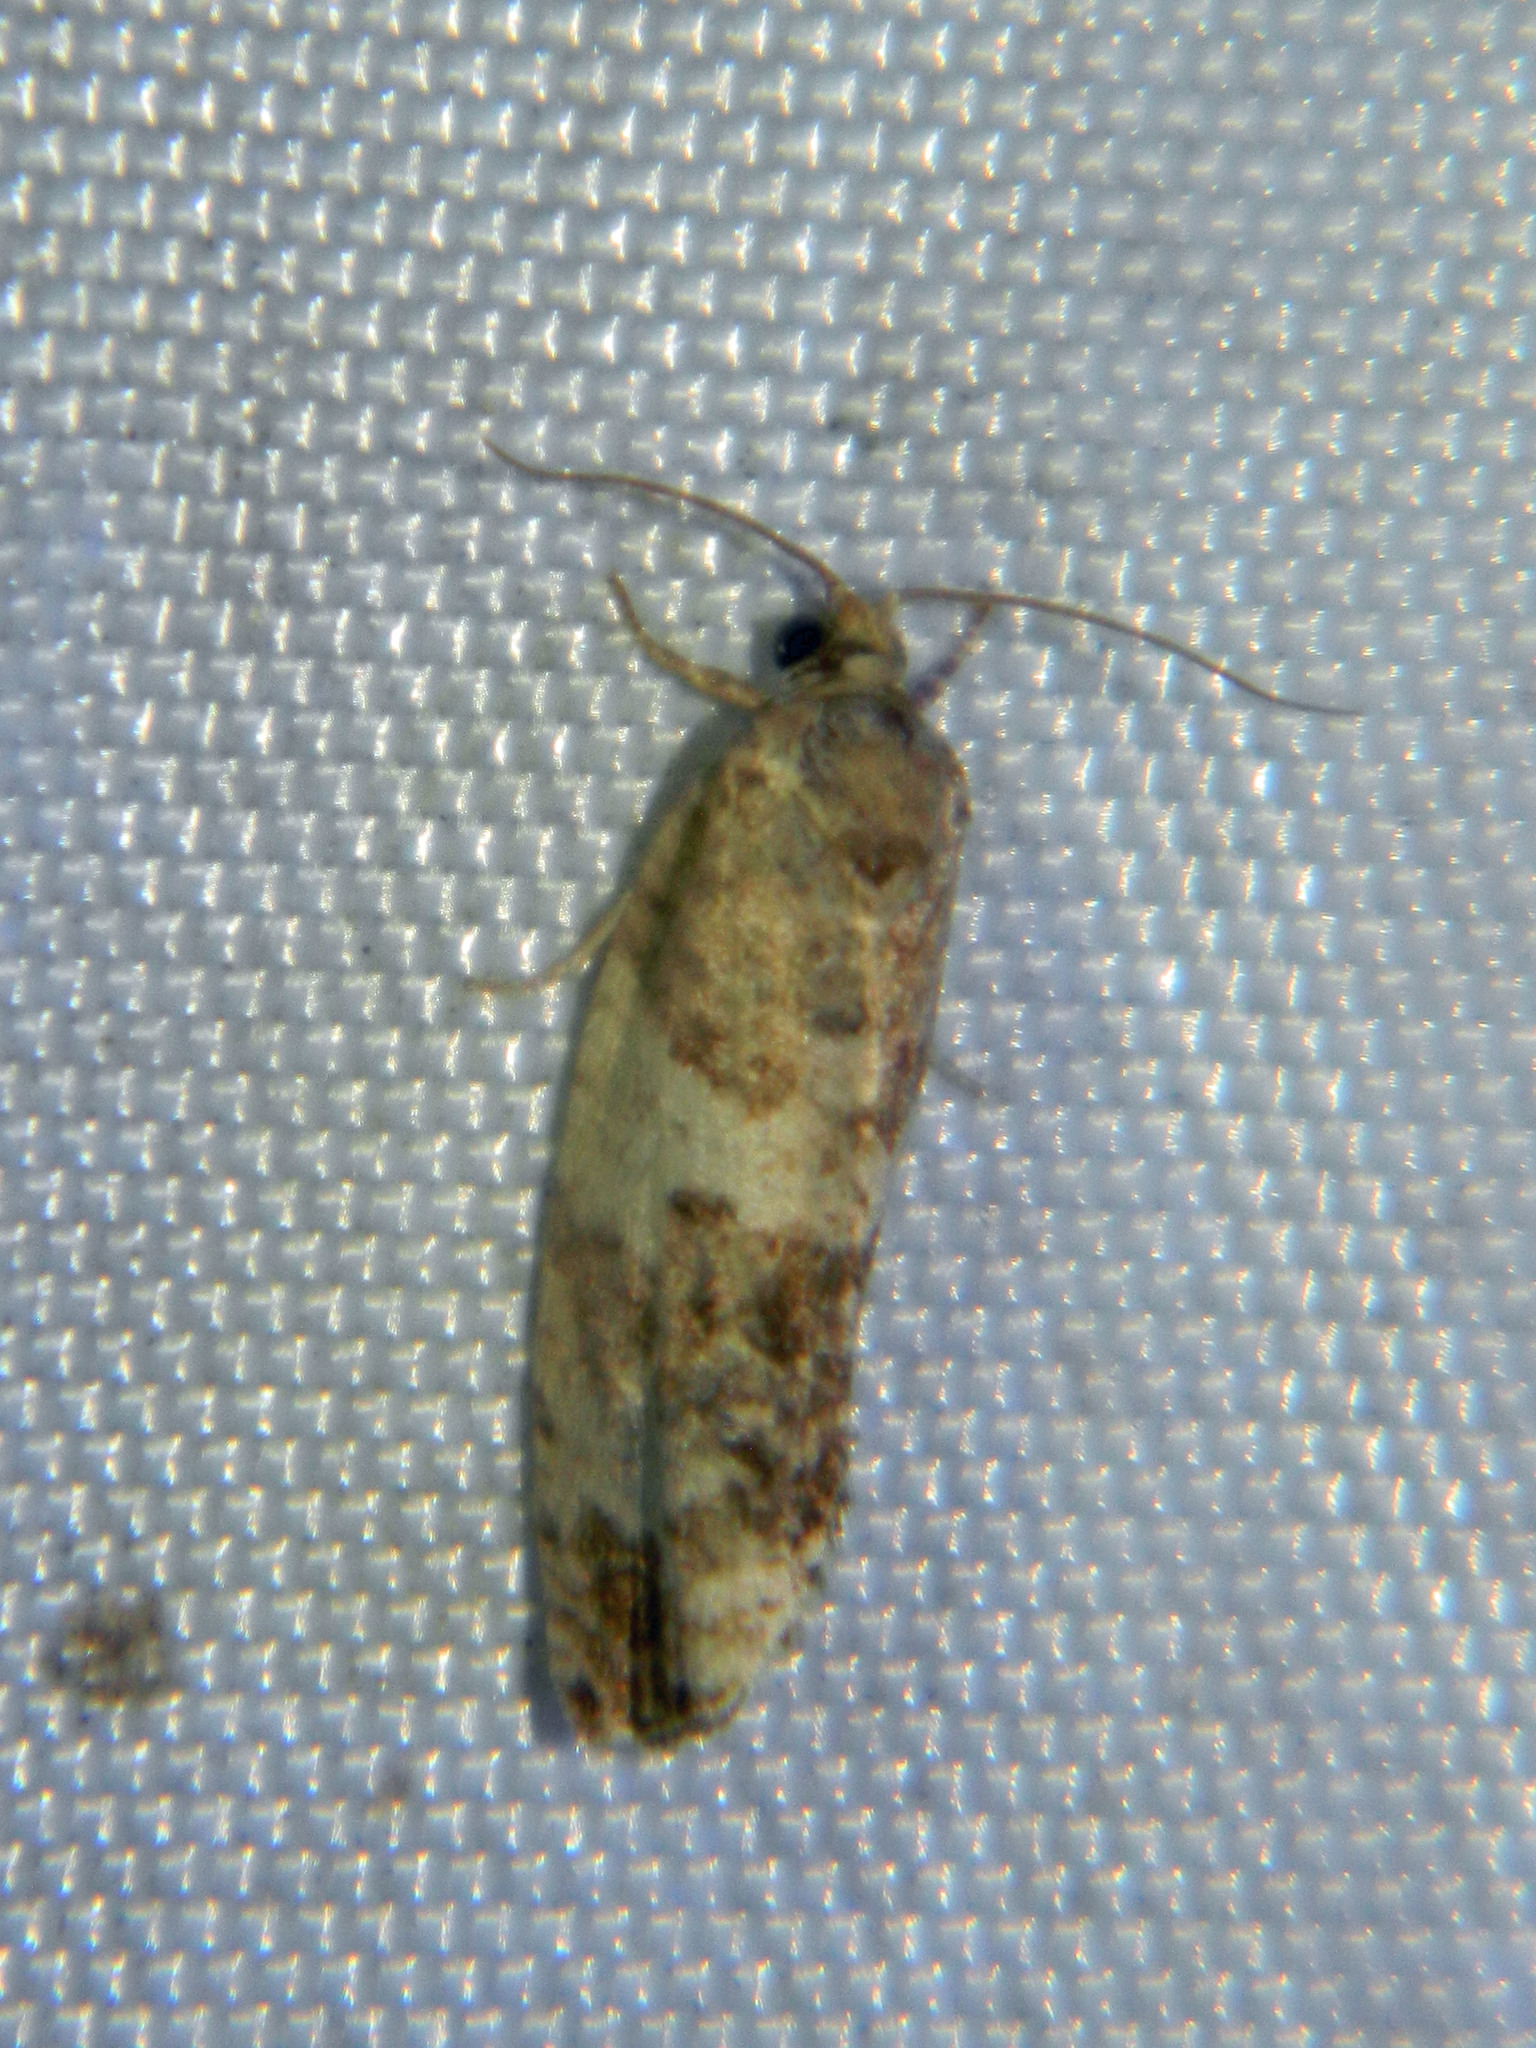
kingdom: Animalia
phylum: Arthropoda
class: Insecta
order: Lepidoptera
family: Tortricidae
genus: Pseudosciaphila
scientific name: Pseudosciaphila duplex
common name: Poplar leafroller moth
